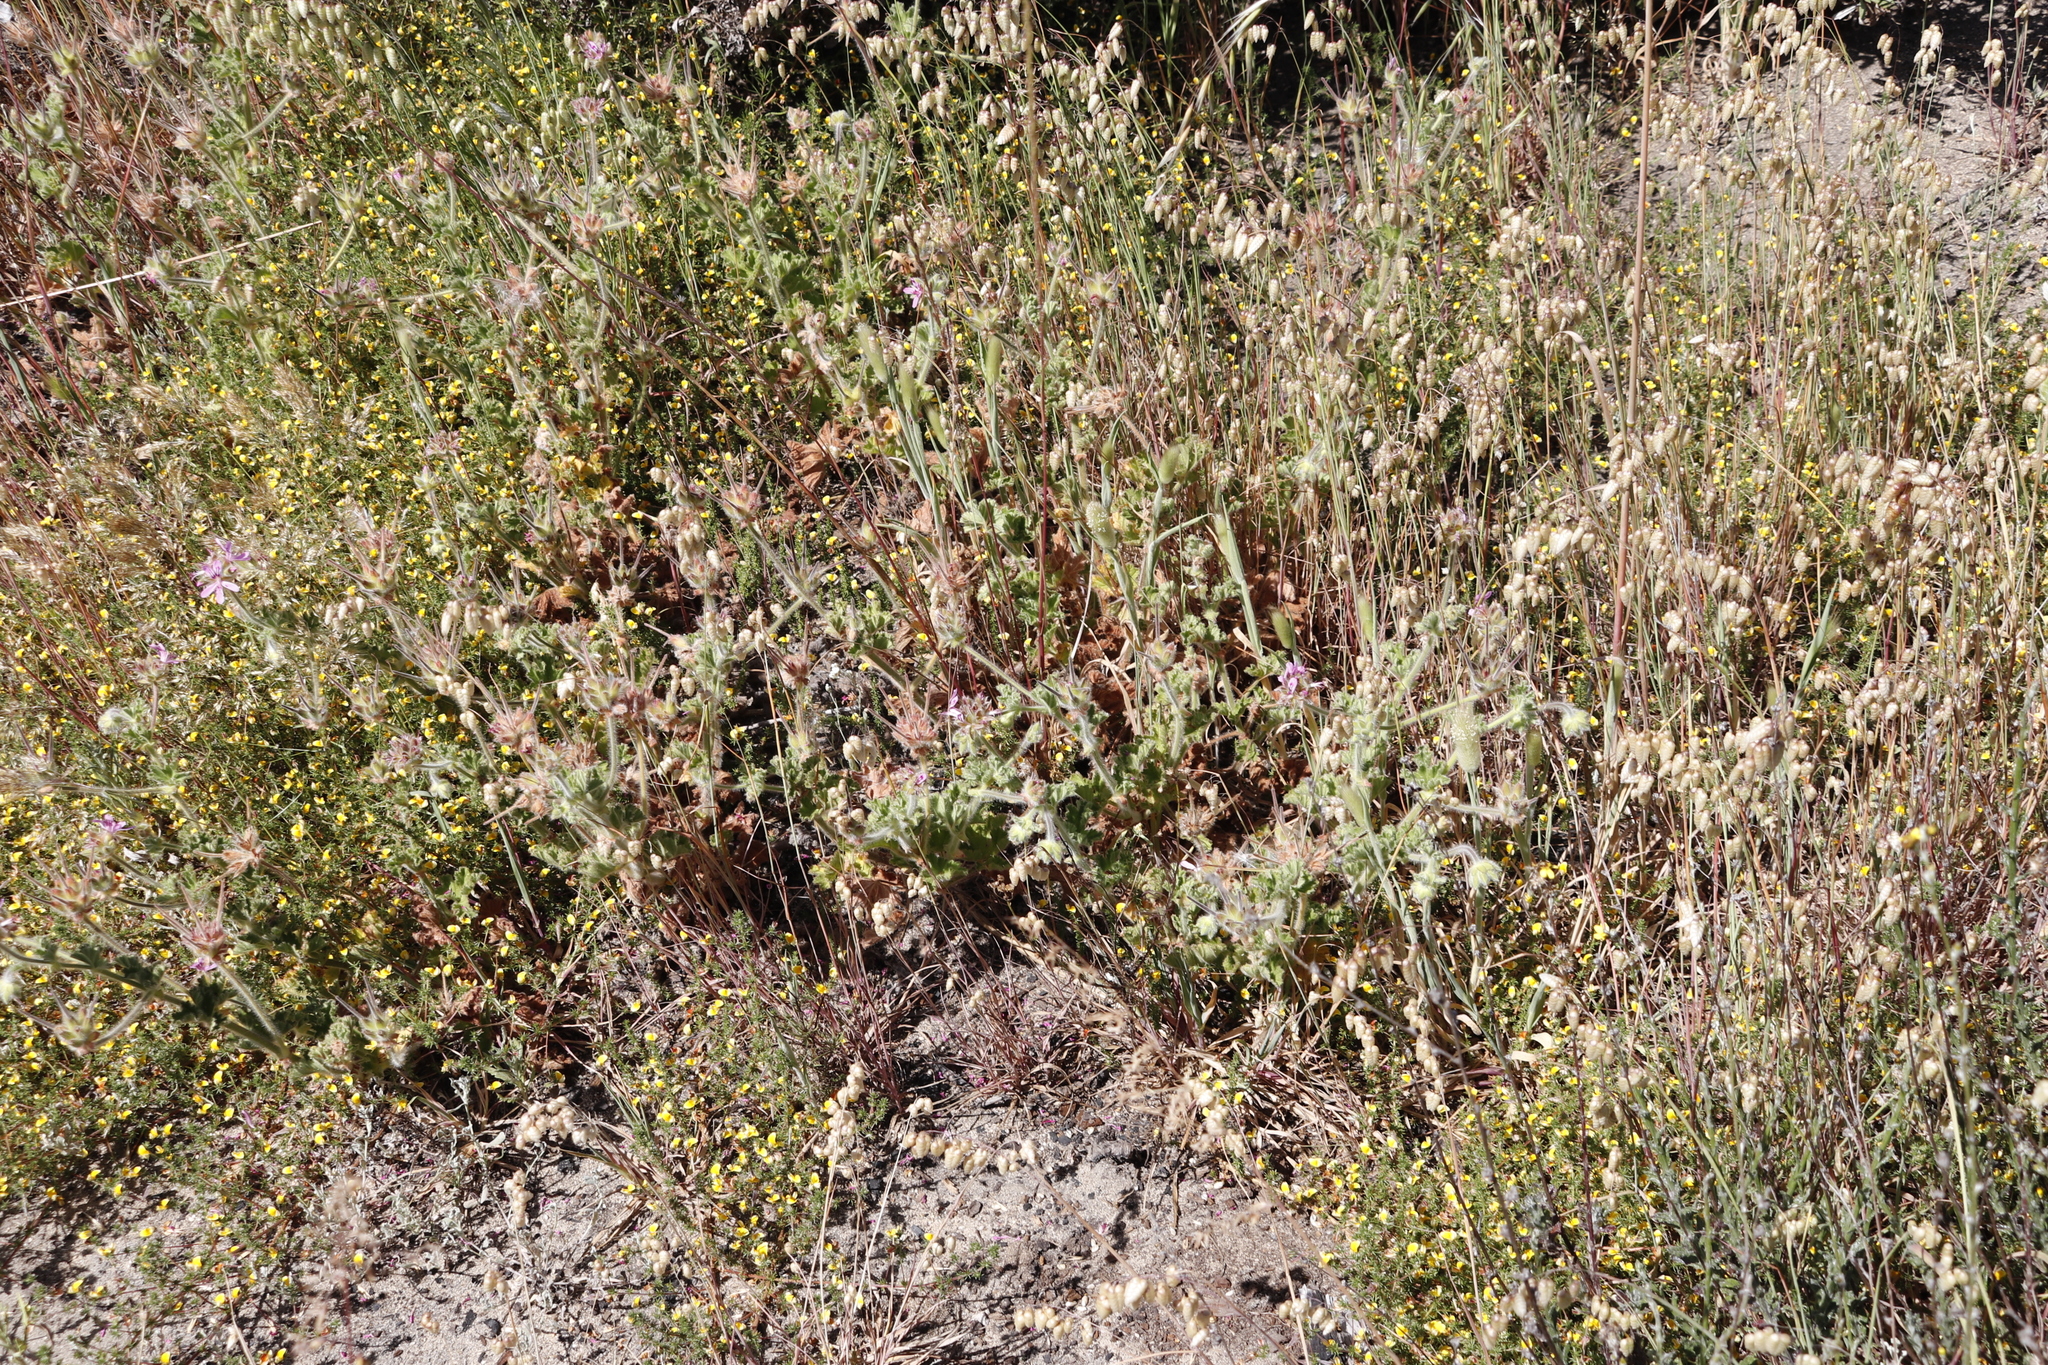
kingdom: Plantae
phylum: Tracheophyta
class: Magnoliopsida
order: Geraniales
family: Geraniaceae
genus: Pelargonium
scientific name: Pelargonium capitatum
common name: Rose scented geranium
